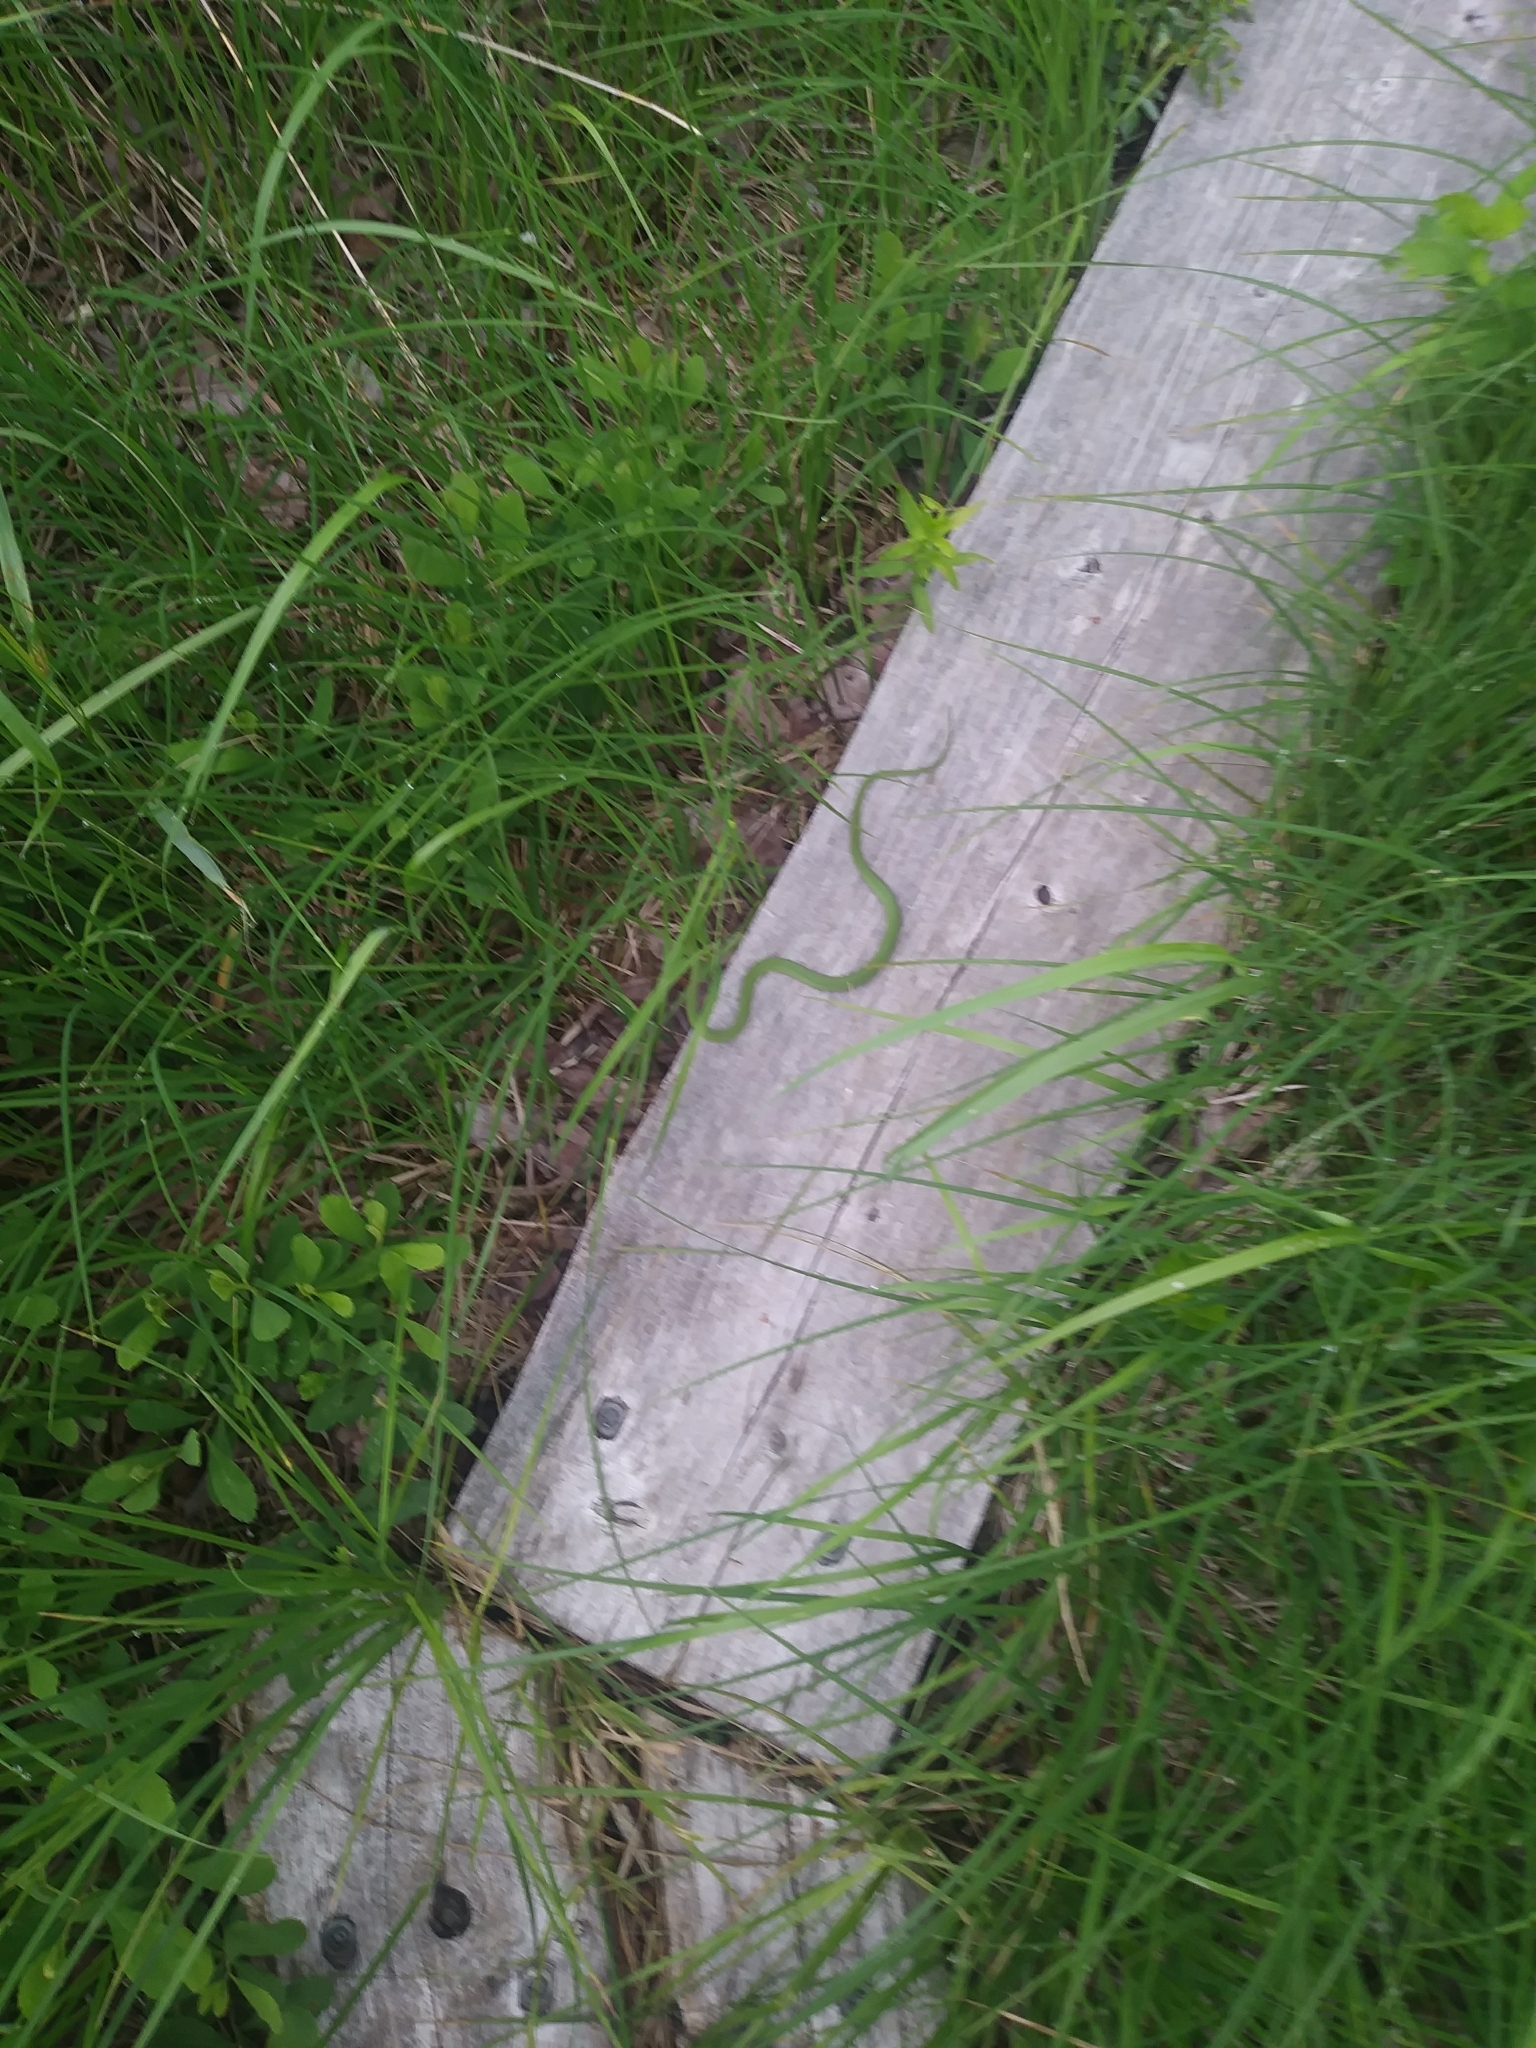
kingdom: Animalia
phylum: Chordata
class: Squamata
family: Colubridae
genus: Opheodrys
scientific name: Opheodrys vernalis
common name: Smooth green snake
